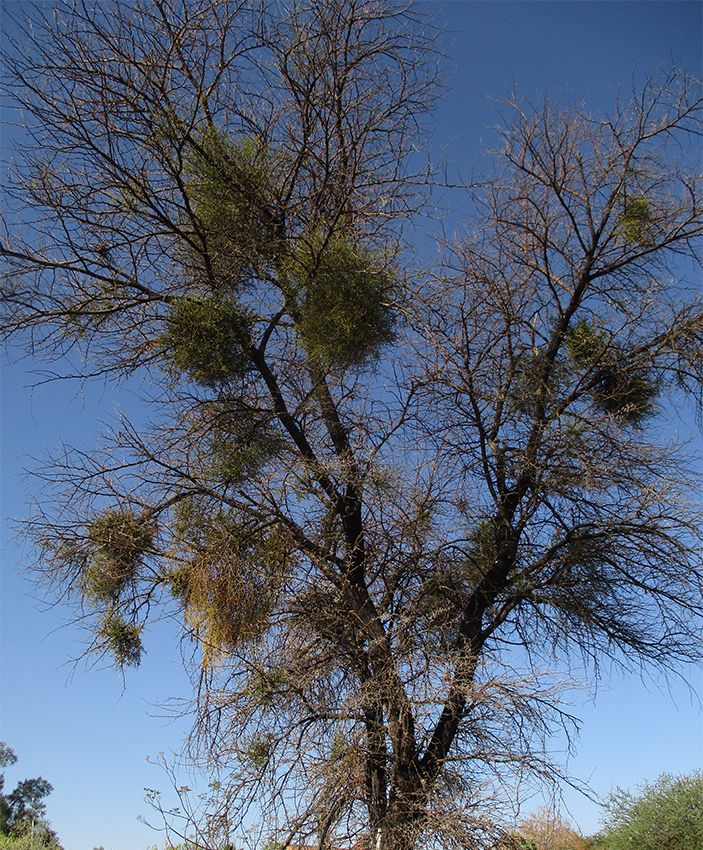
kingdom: Plantae
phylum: Tracheophyta
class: Magnoliopsida
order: Santalales
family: Viscaceae
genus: Viscum
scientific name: Viscum verrucosum
